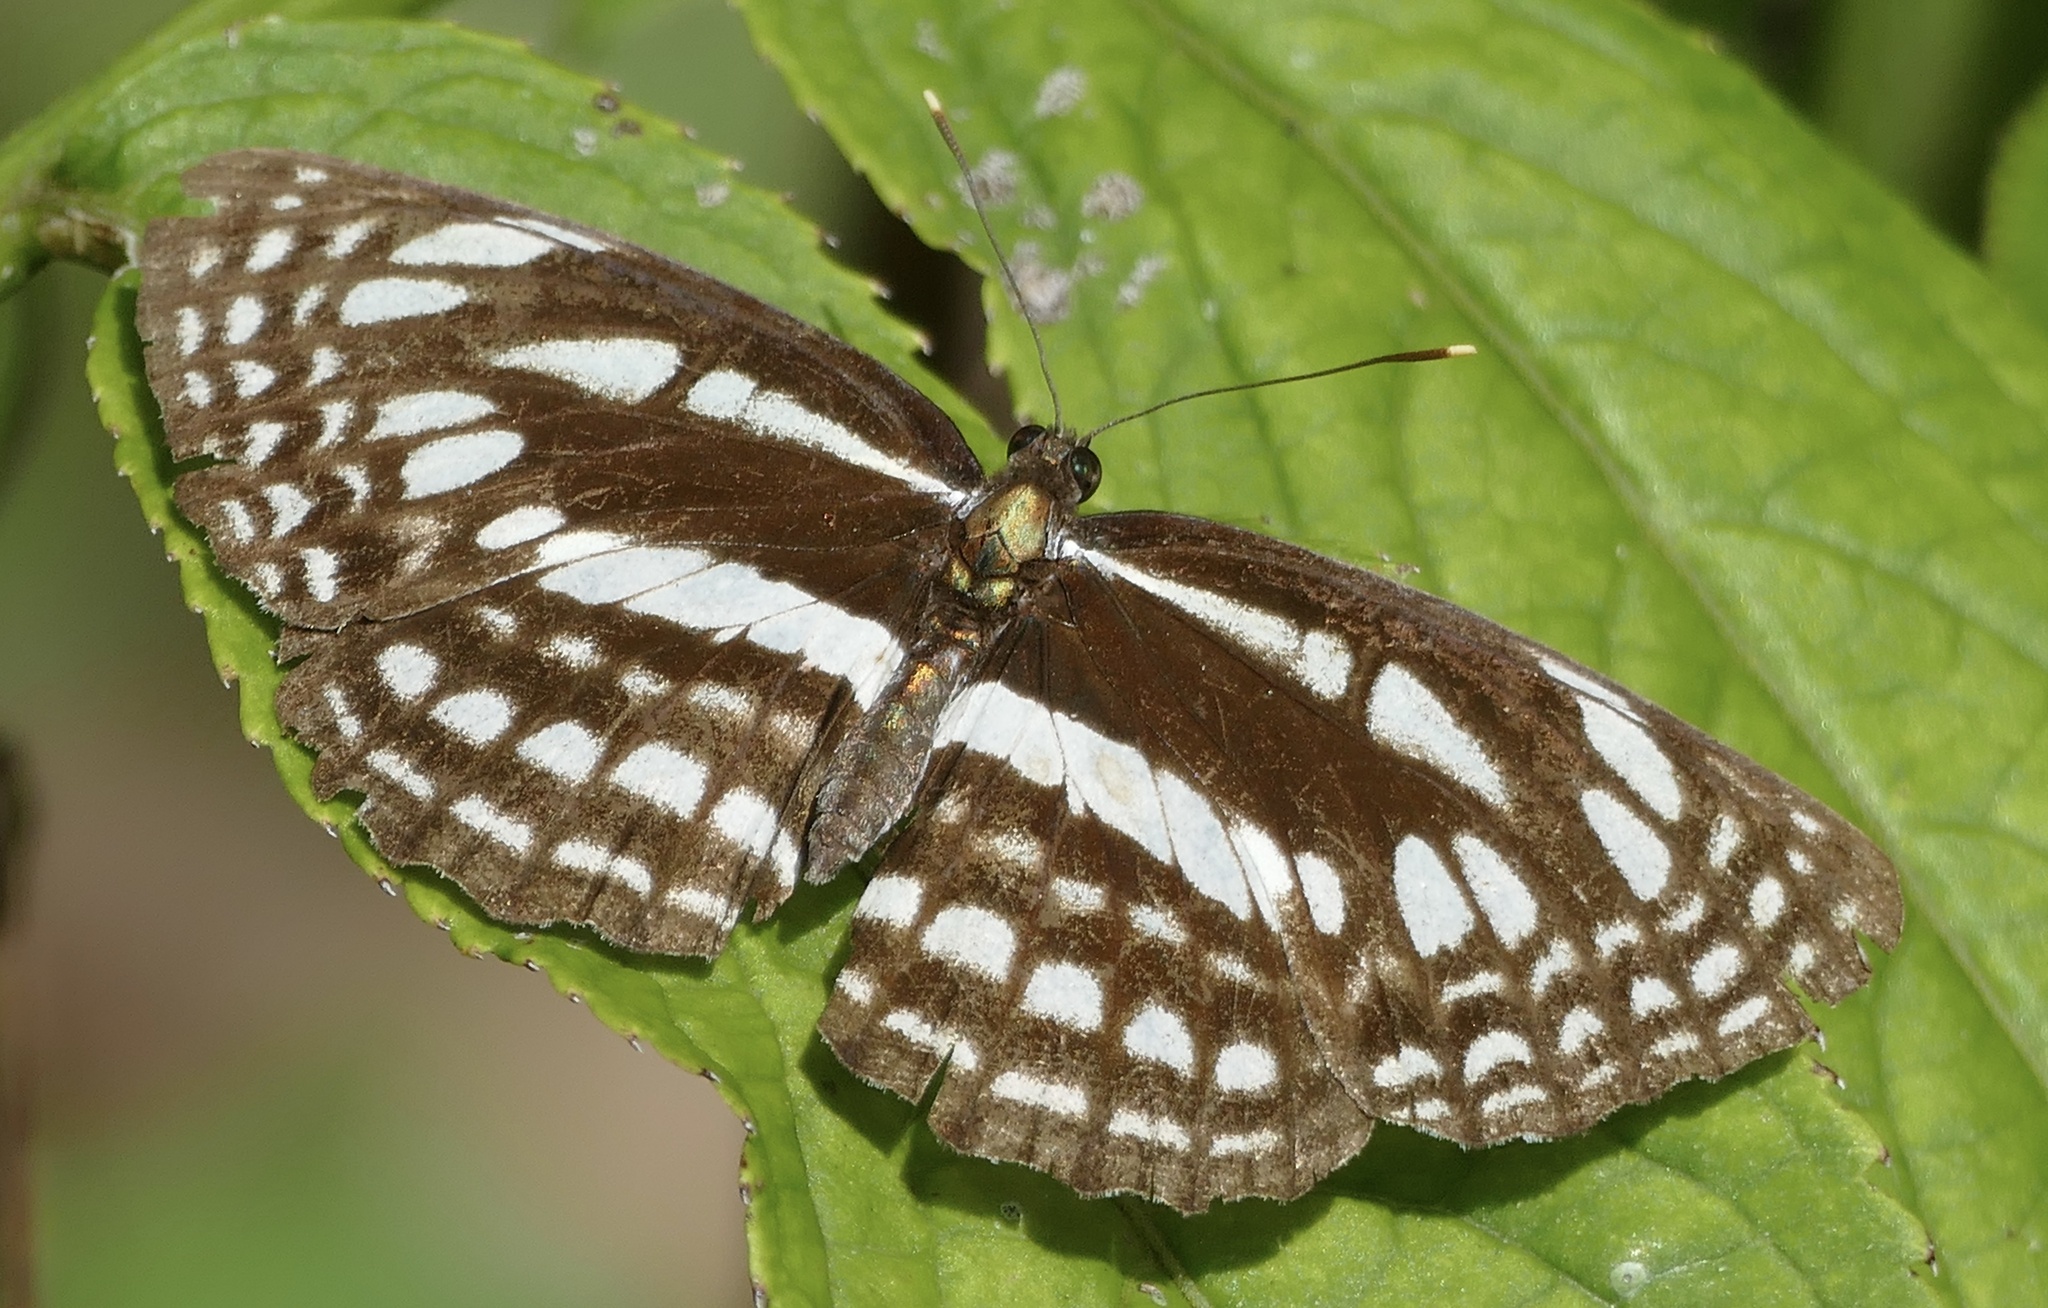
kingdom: Animalia
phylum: Arthropoda
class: Insecta
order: Lepidoptera
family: Nymphalidae
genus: Neptis
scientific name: Neptis ida
